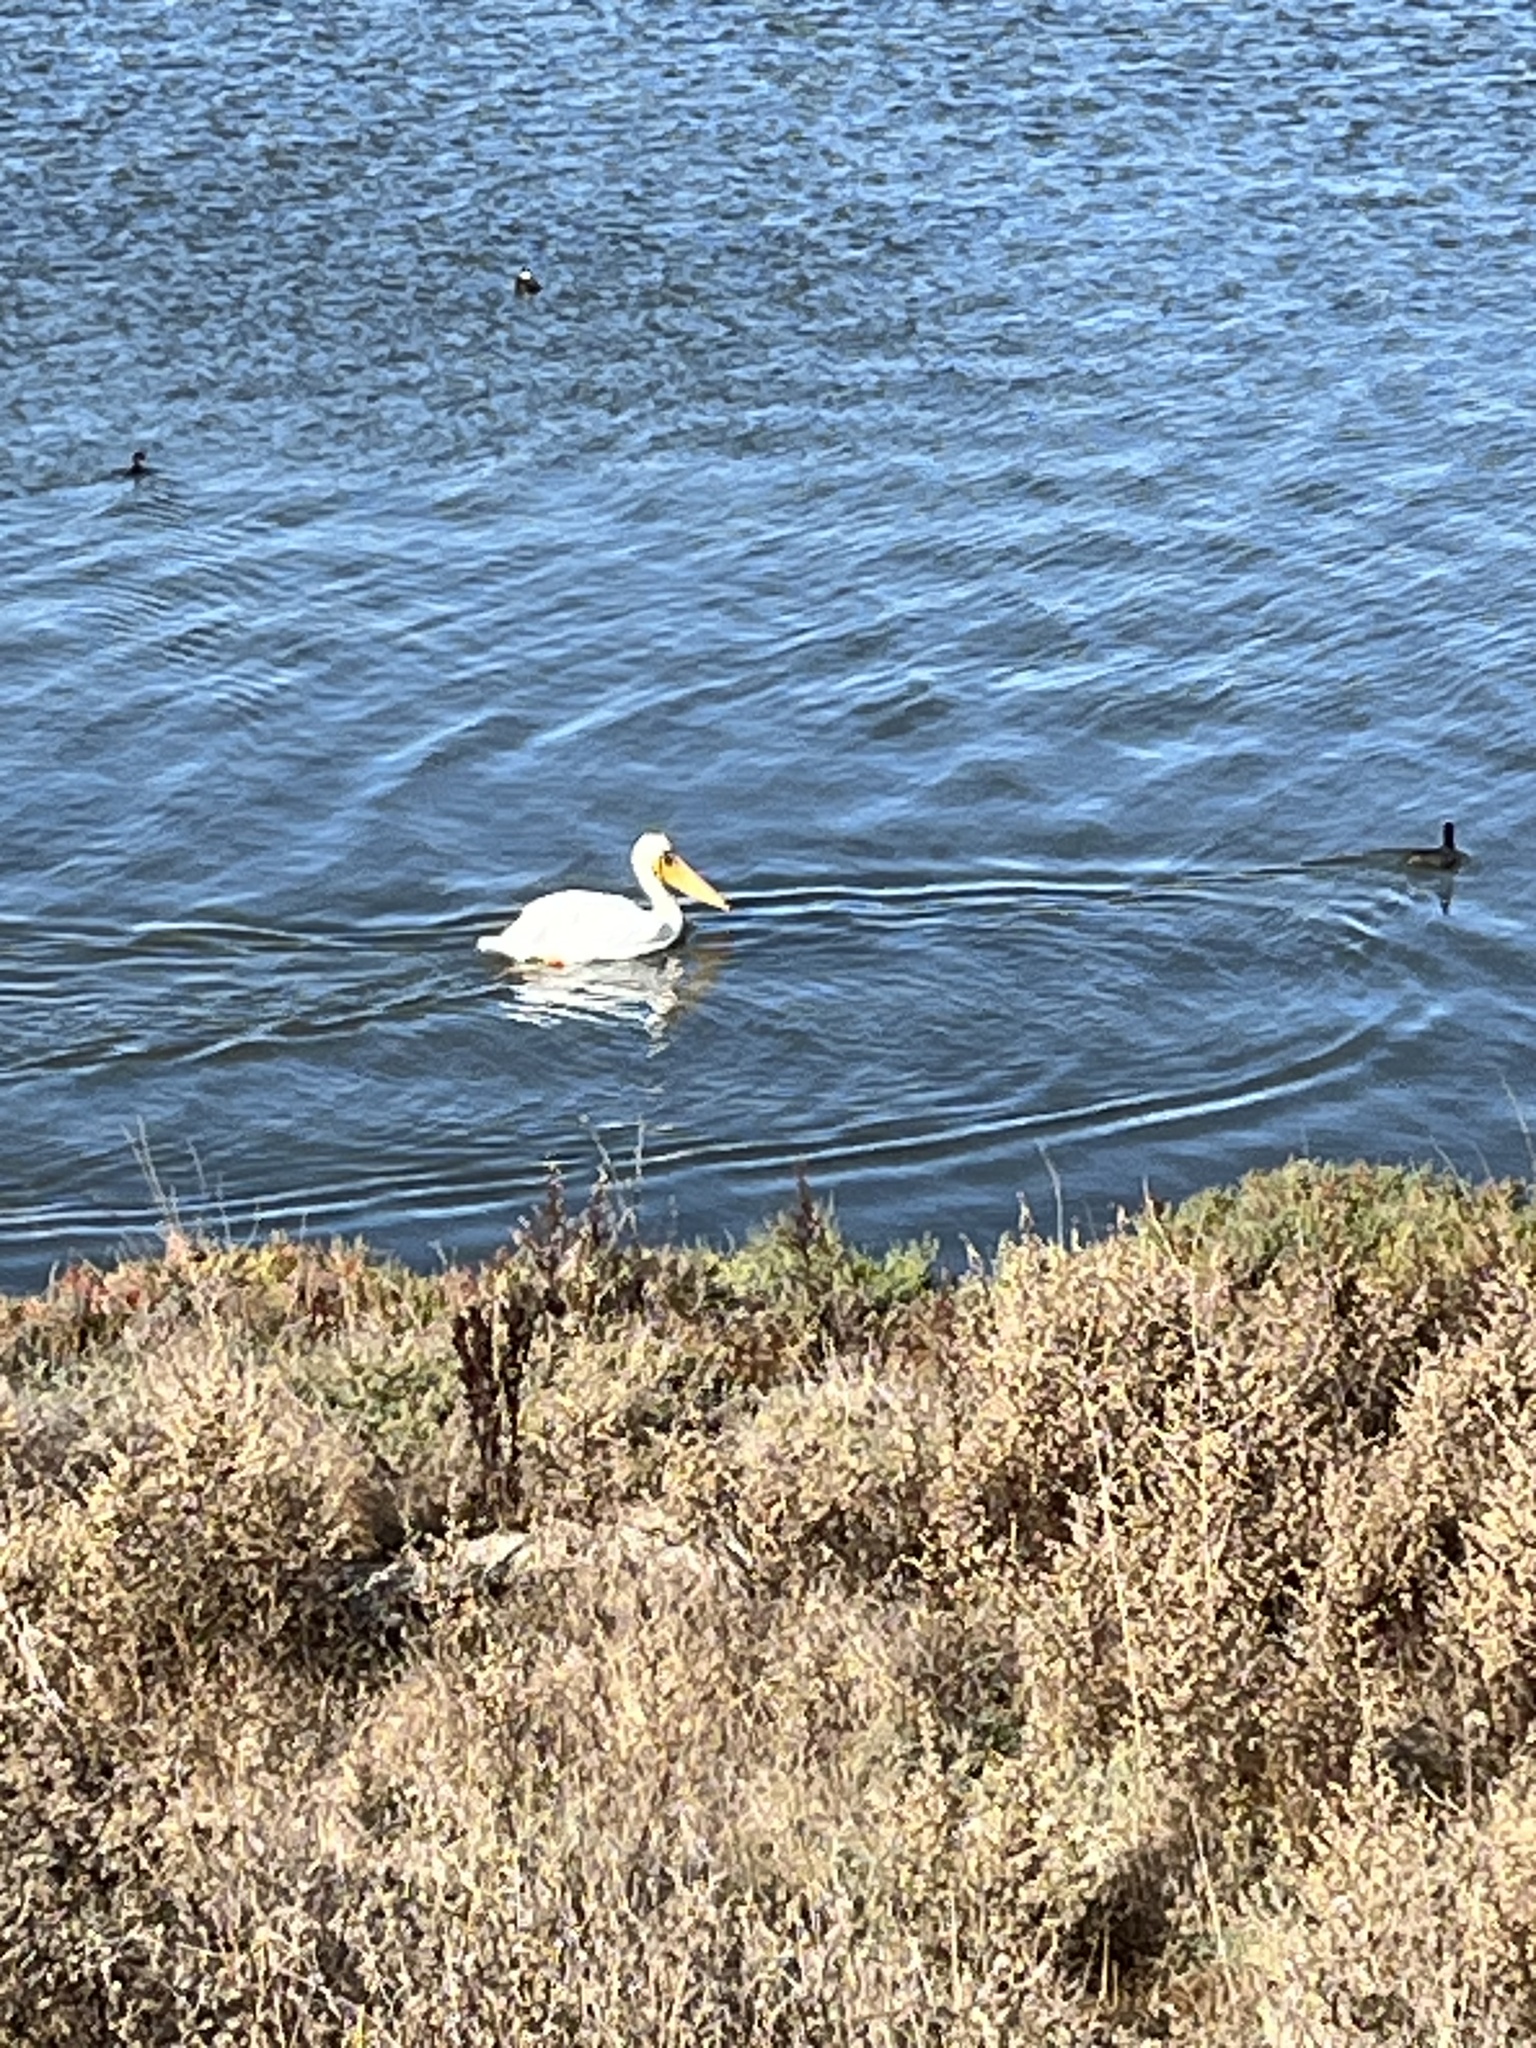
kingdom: Animalia
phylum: Chordata
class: Aves
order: Pelecaniformes
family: Pelecanidae
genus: Pelecanus
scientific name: Pelecanus erythrorhynchos
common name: American white pelican
